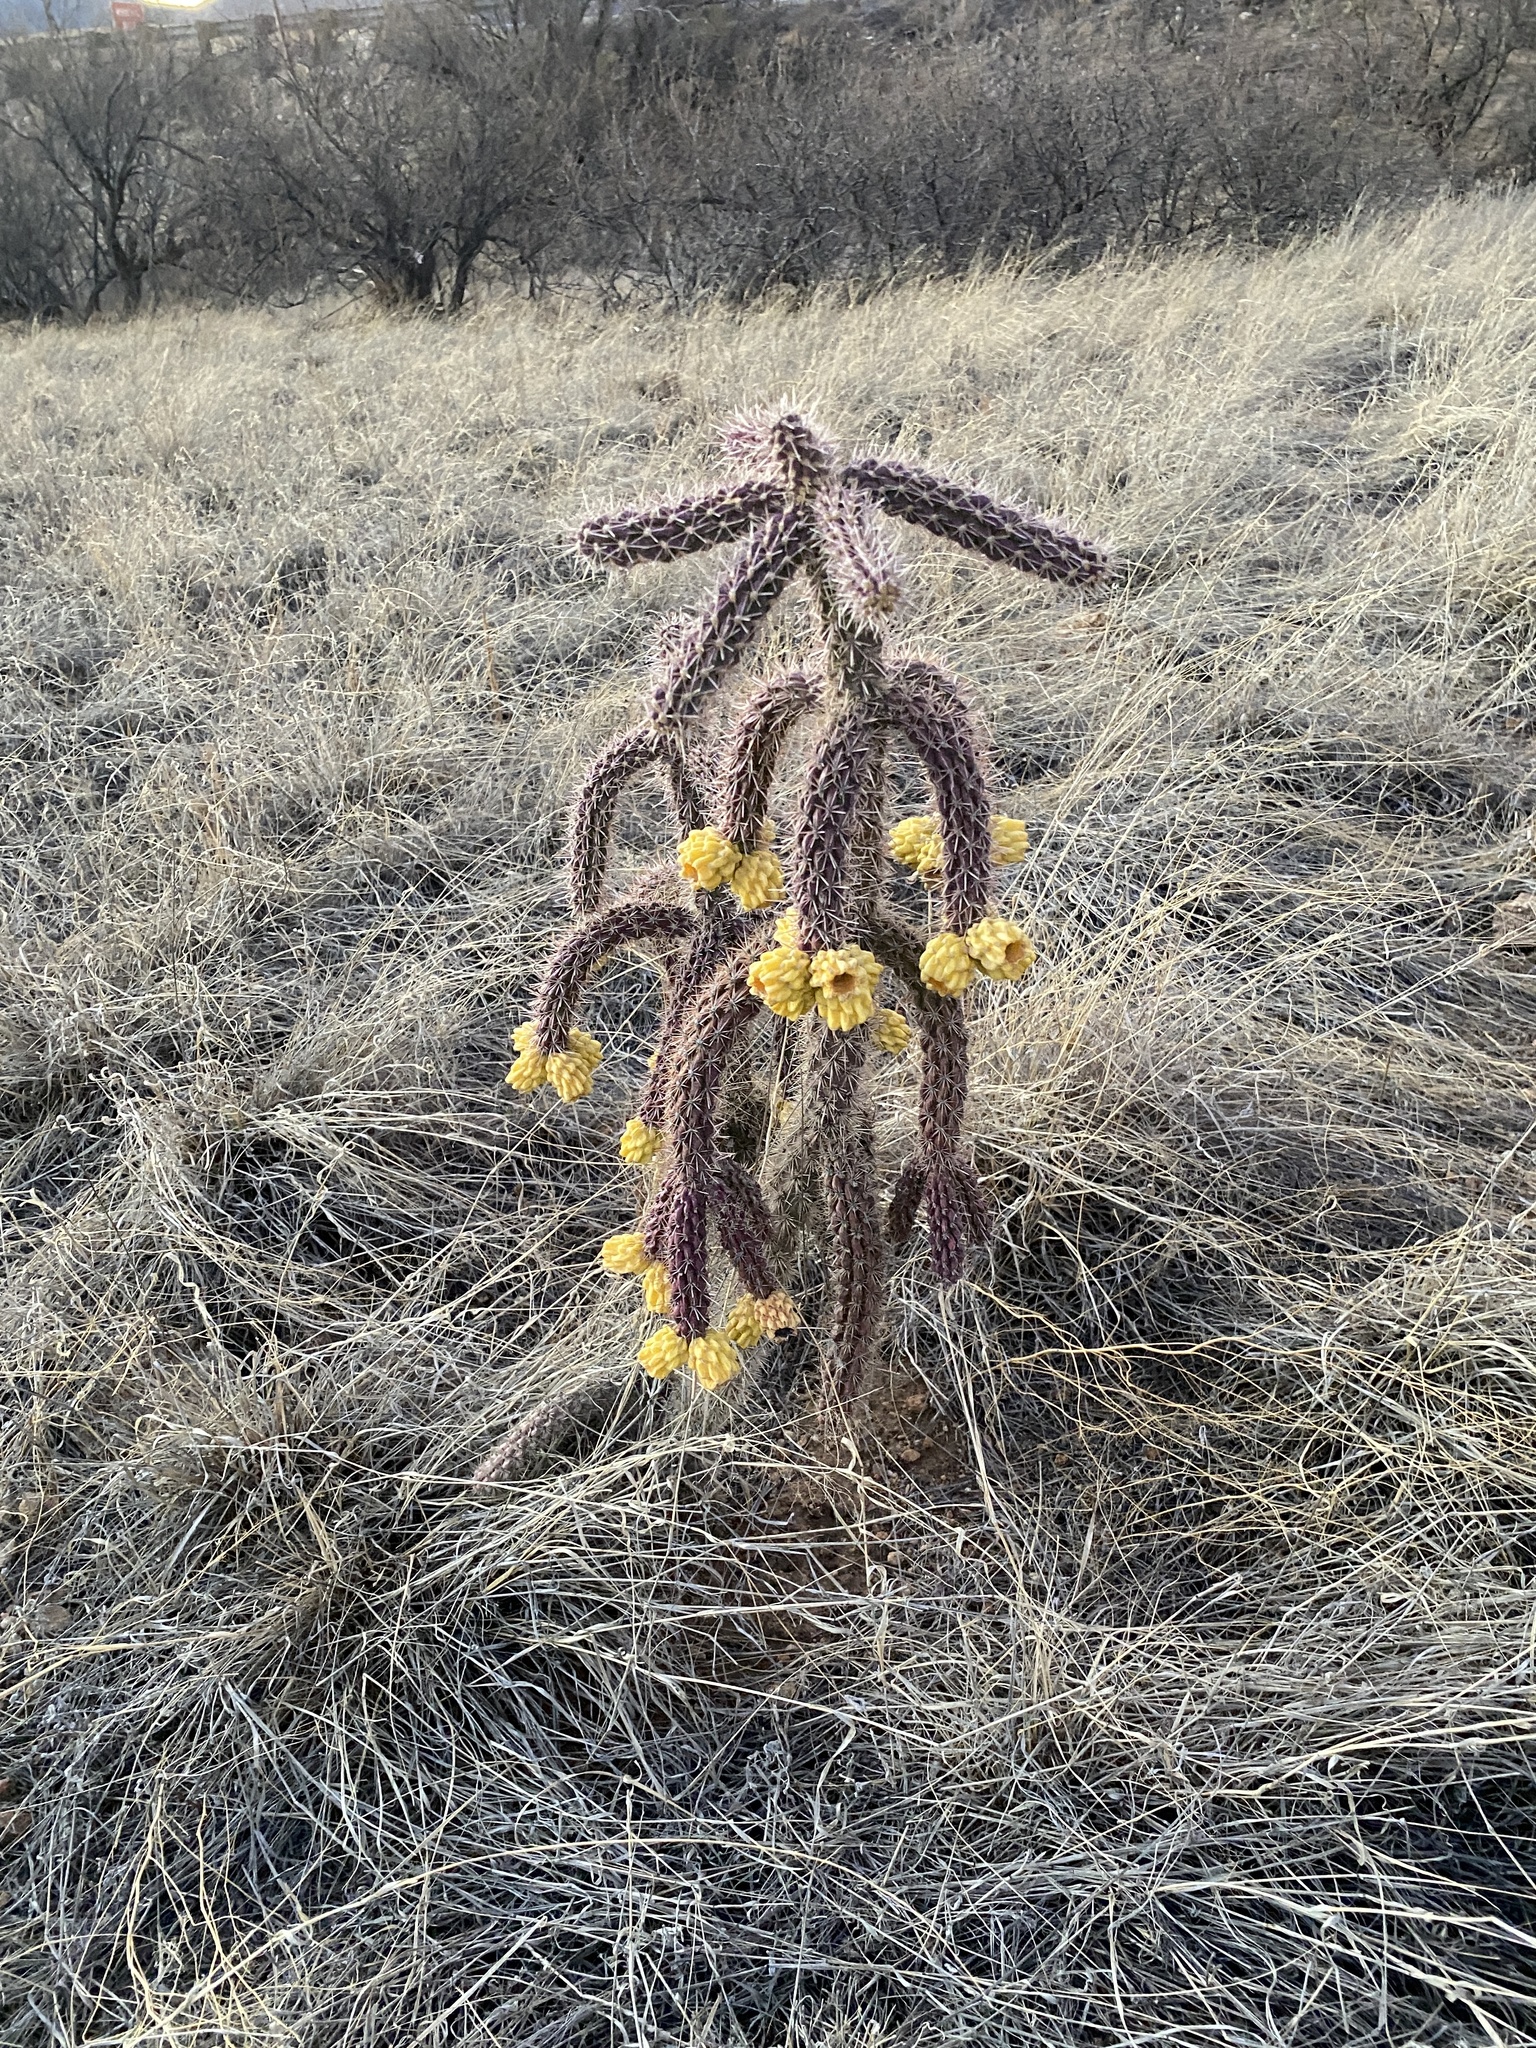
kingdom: Plantae
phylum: Tracheophyta
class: Magnoliopsida
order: Caryophyllales
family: Cactaceae
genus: Cylindropuntia
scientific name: Cylindropuntia imbricata
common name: Candelabrum cactus
